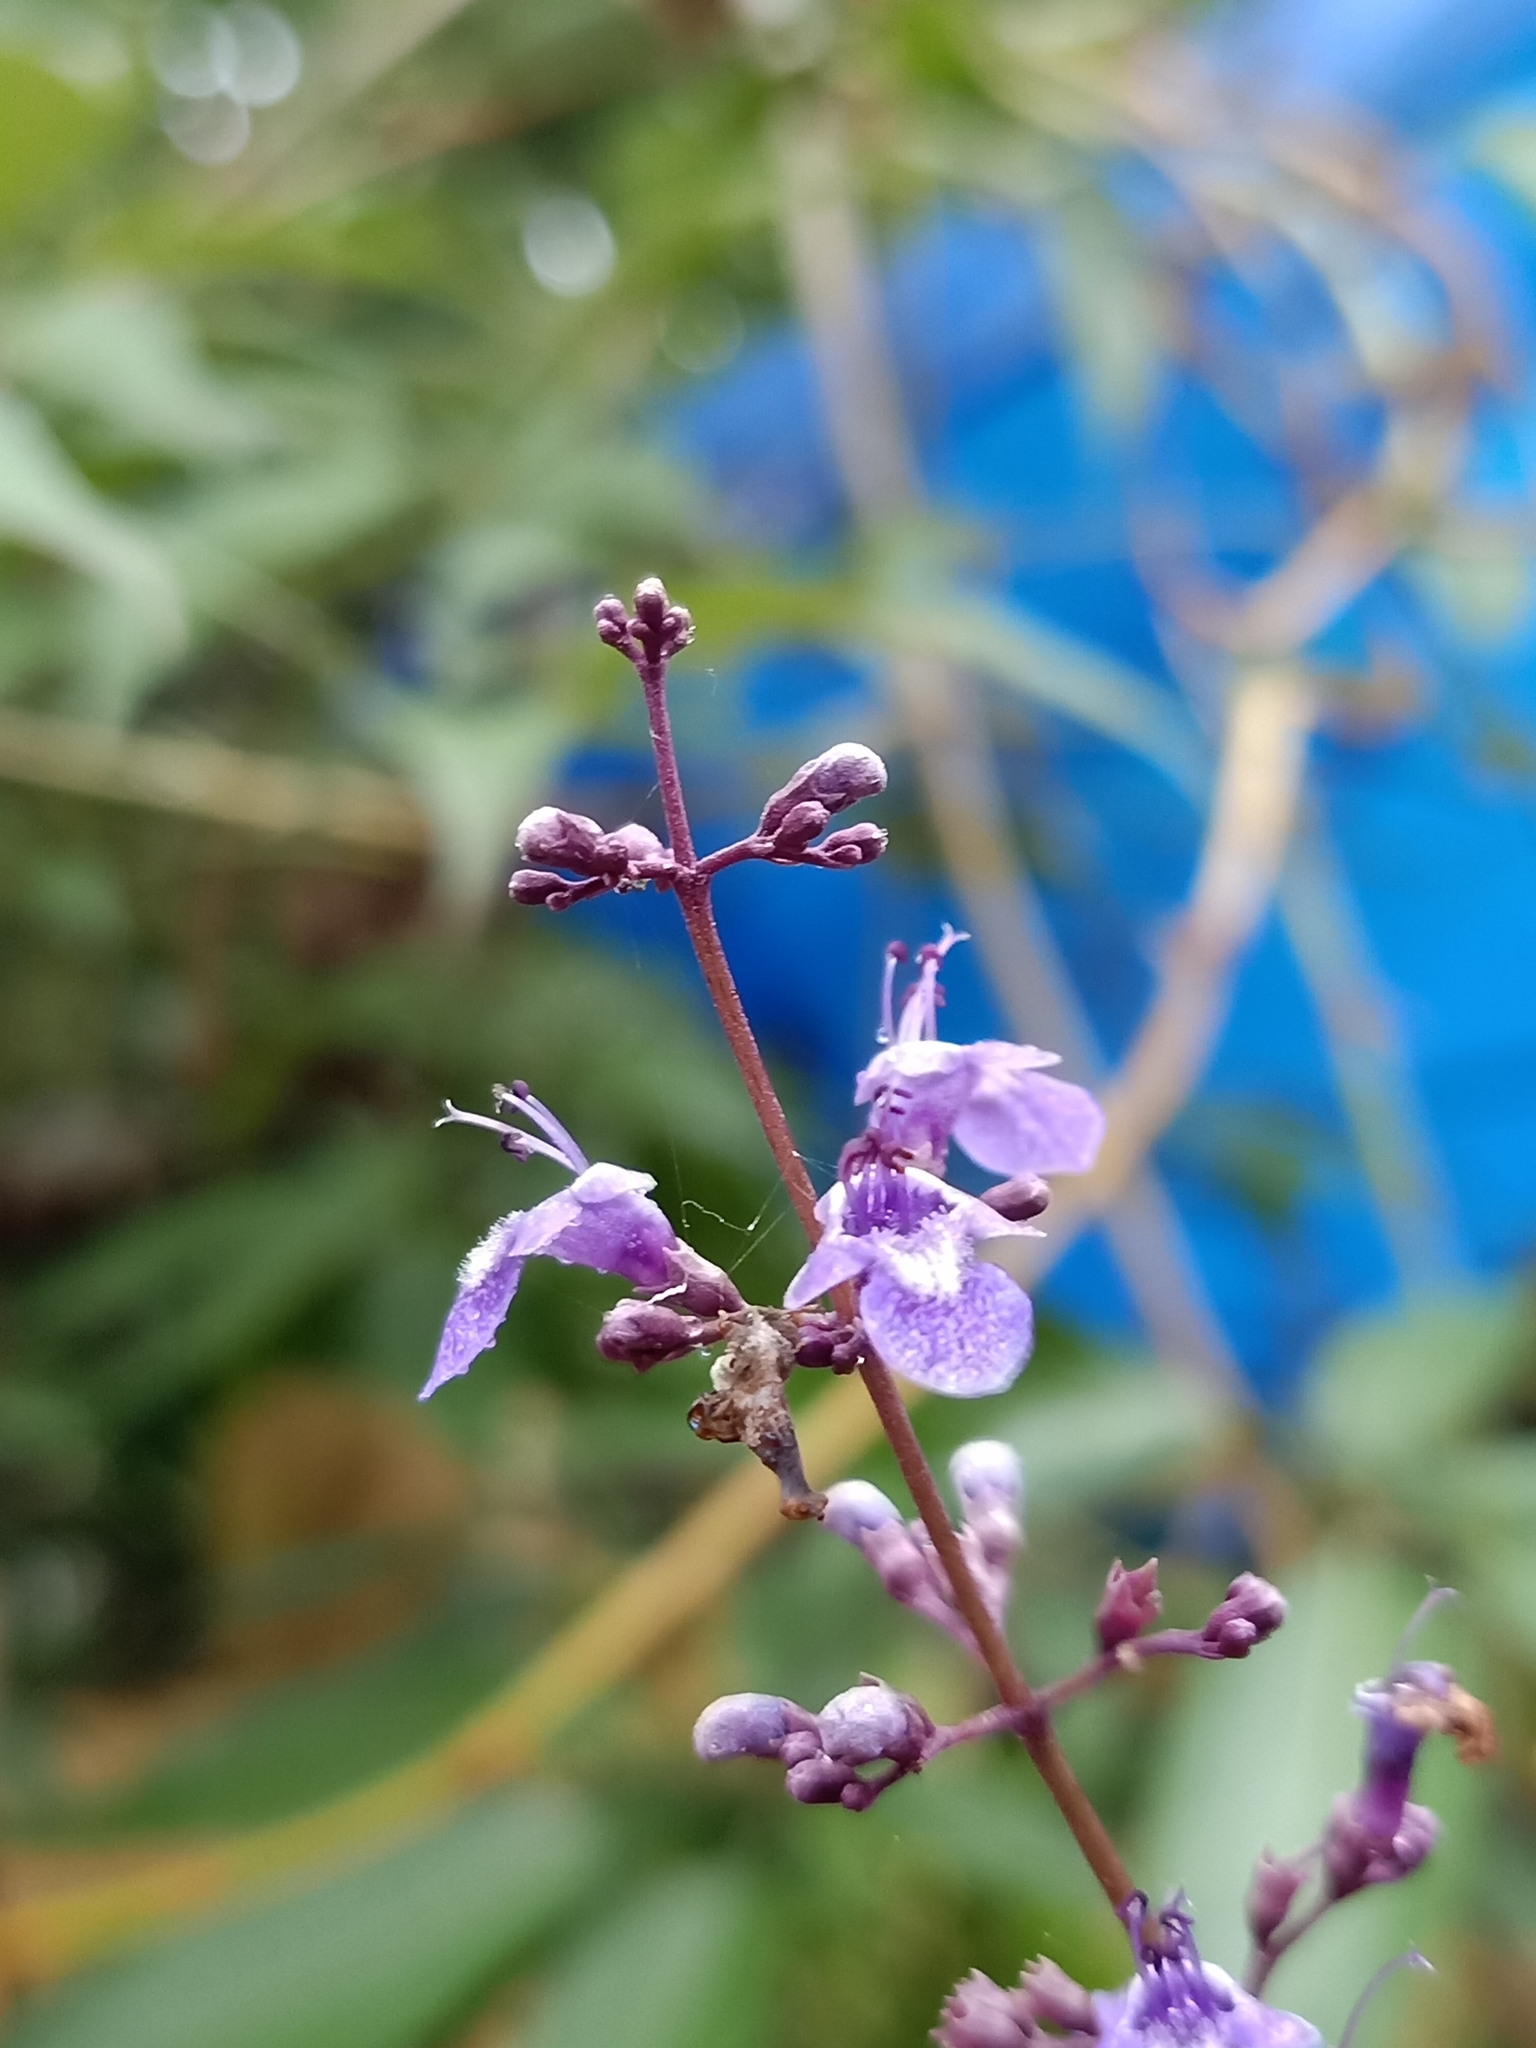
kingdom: Plantae
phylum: Tracheophyta
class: Magnoliopsida
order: Lamiales
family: Lamiaceae
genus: Vitex
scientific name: Vitex negundo
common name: Chinese chastetree
